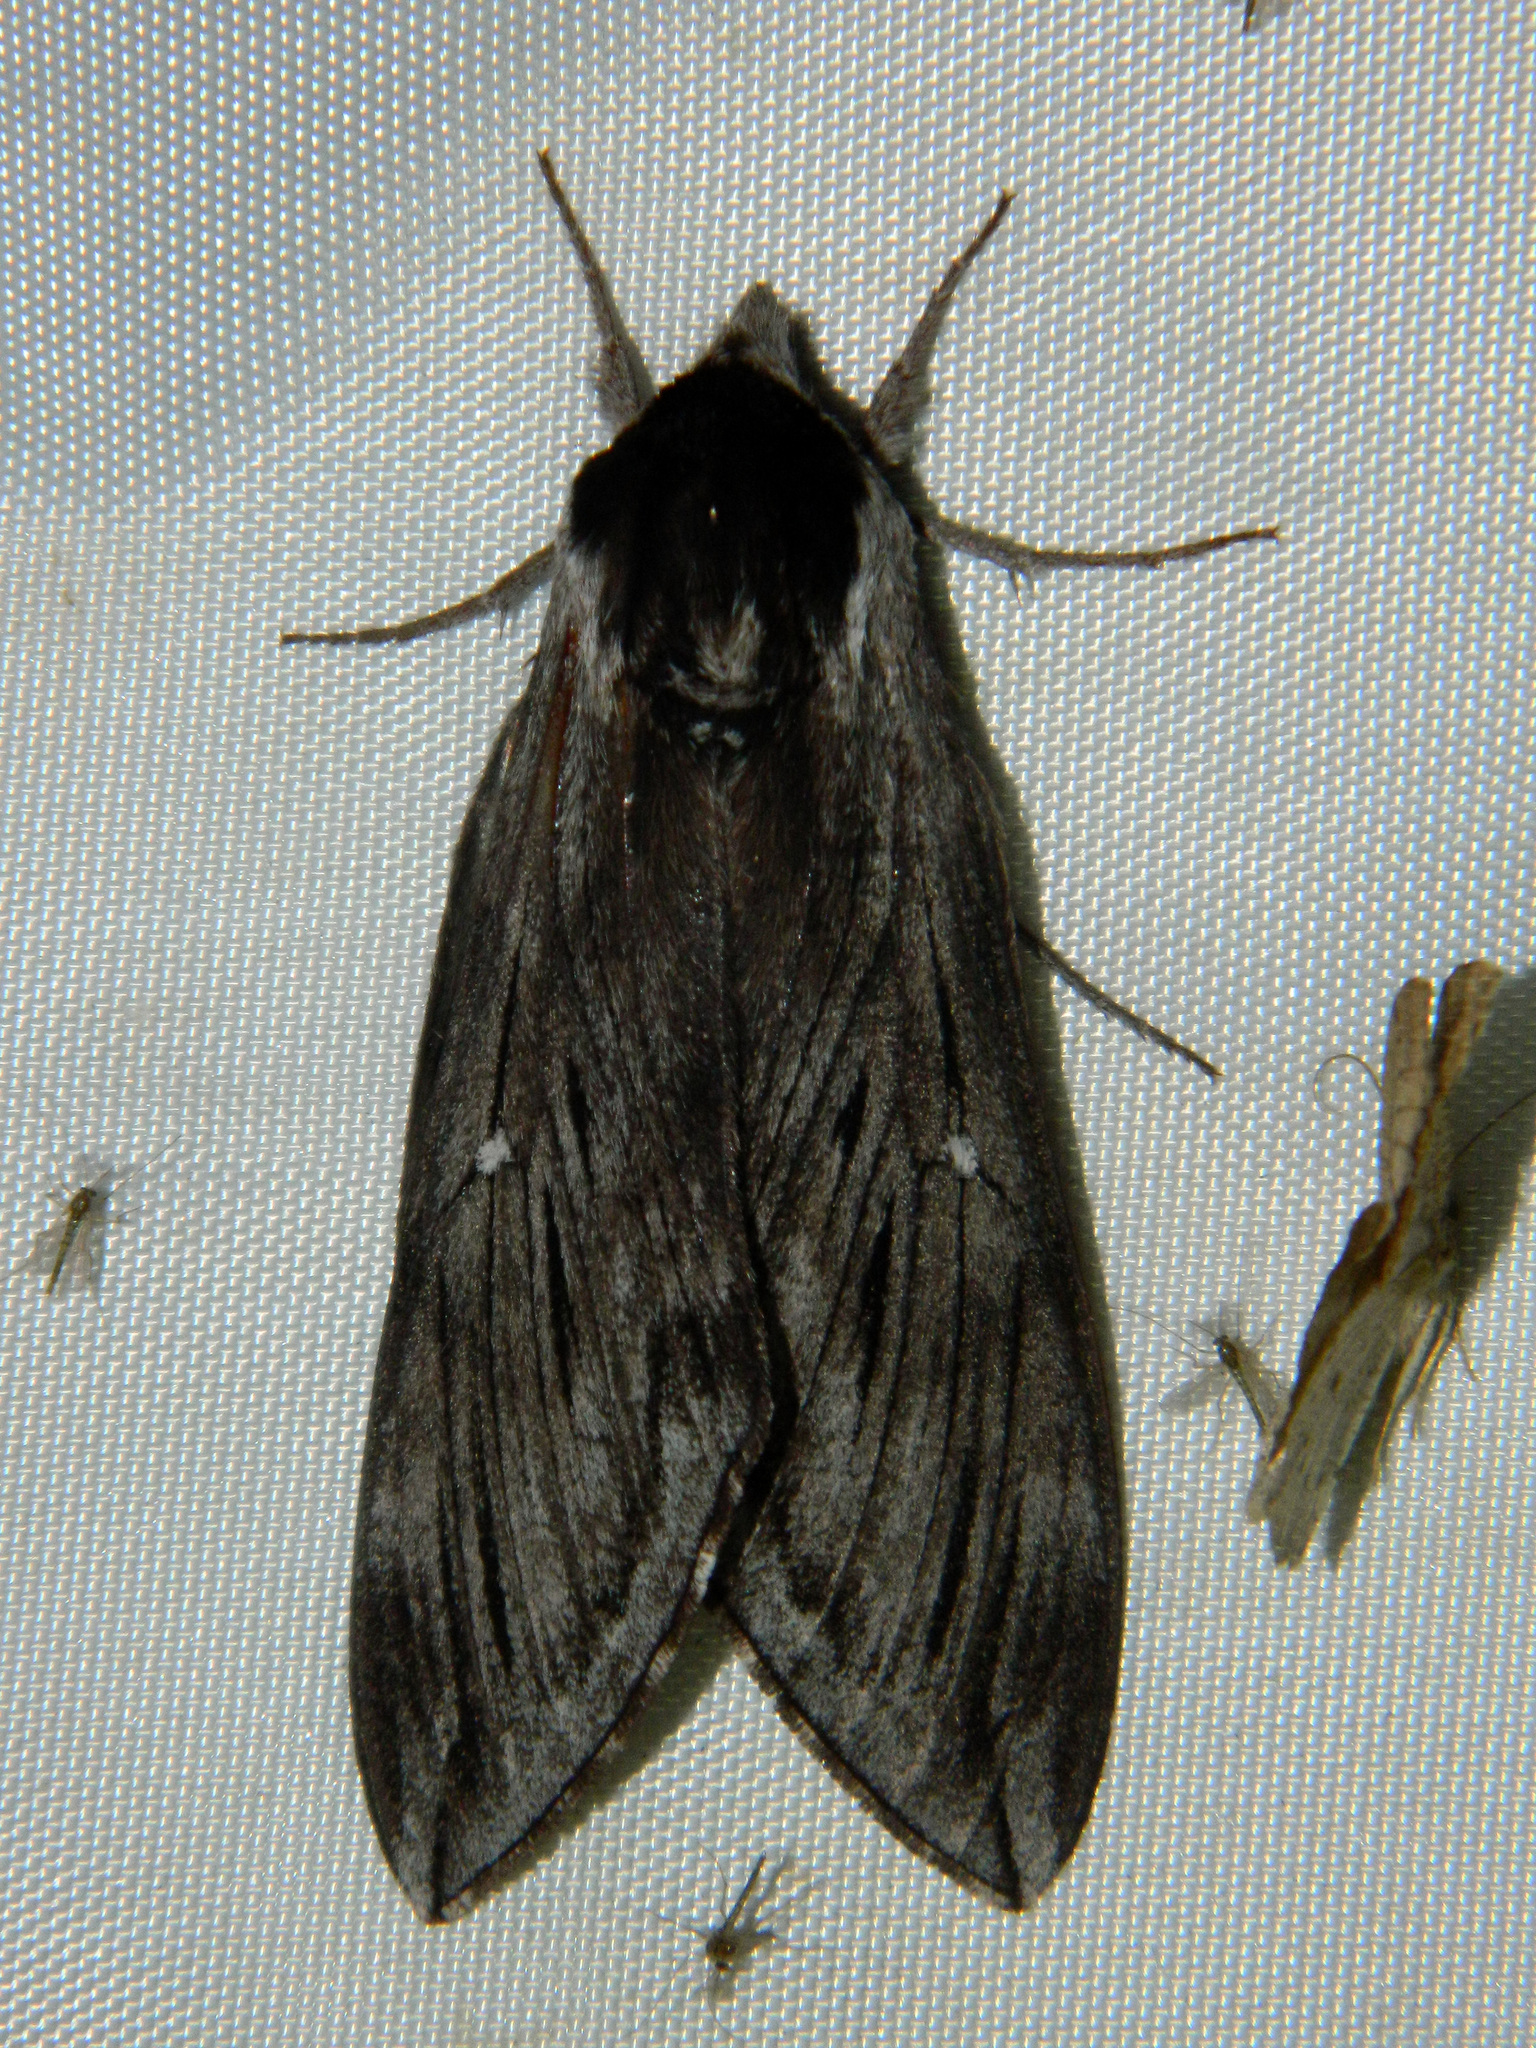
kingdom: Animalia
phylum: Arthropoda
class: Insecta
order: Lepidoptera
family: Sphingidae
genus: Sphinx
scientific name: Sphinx poecila
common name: Northern apple sphinx
